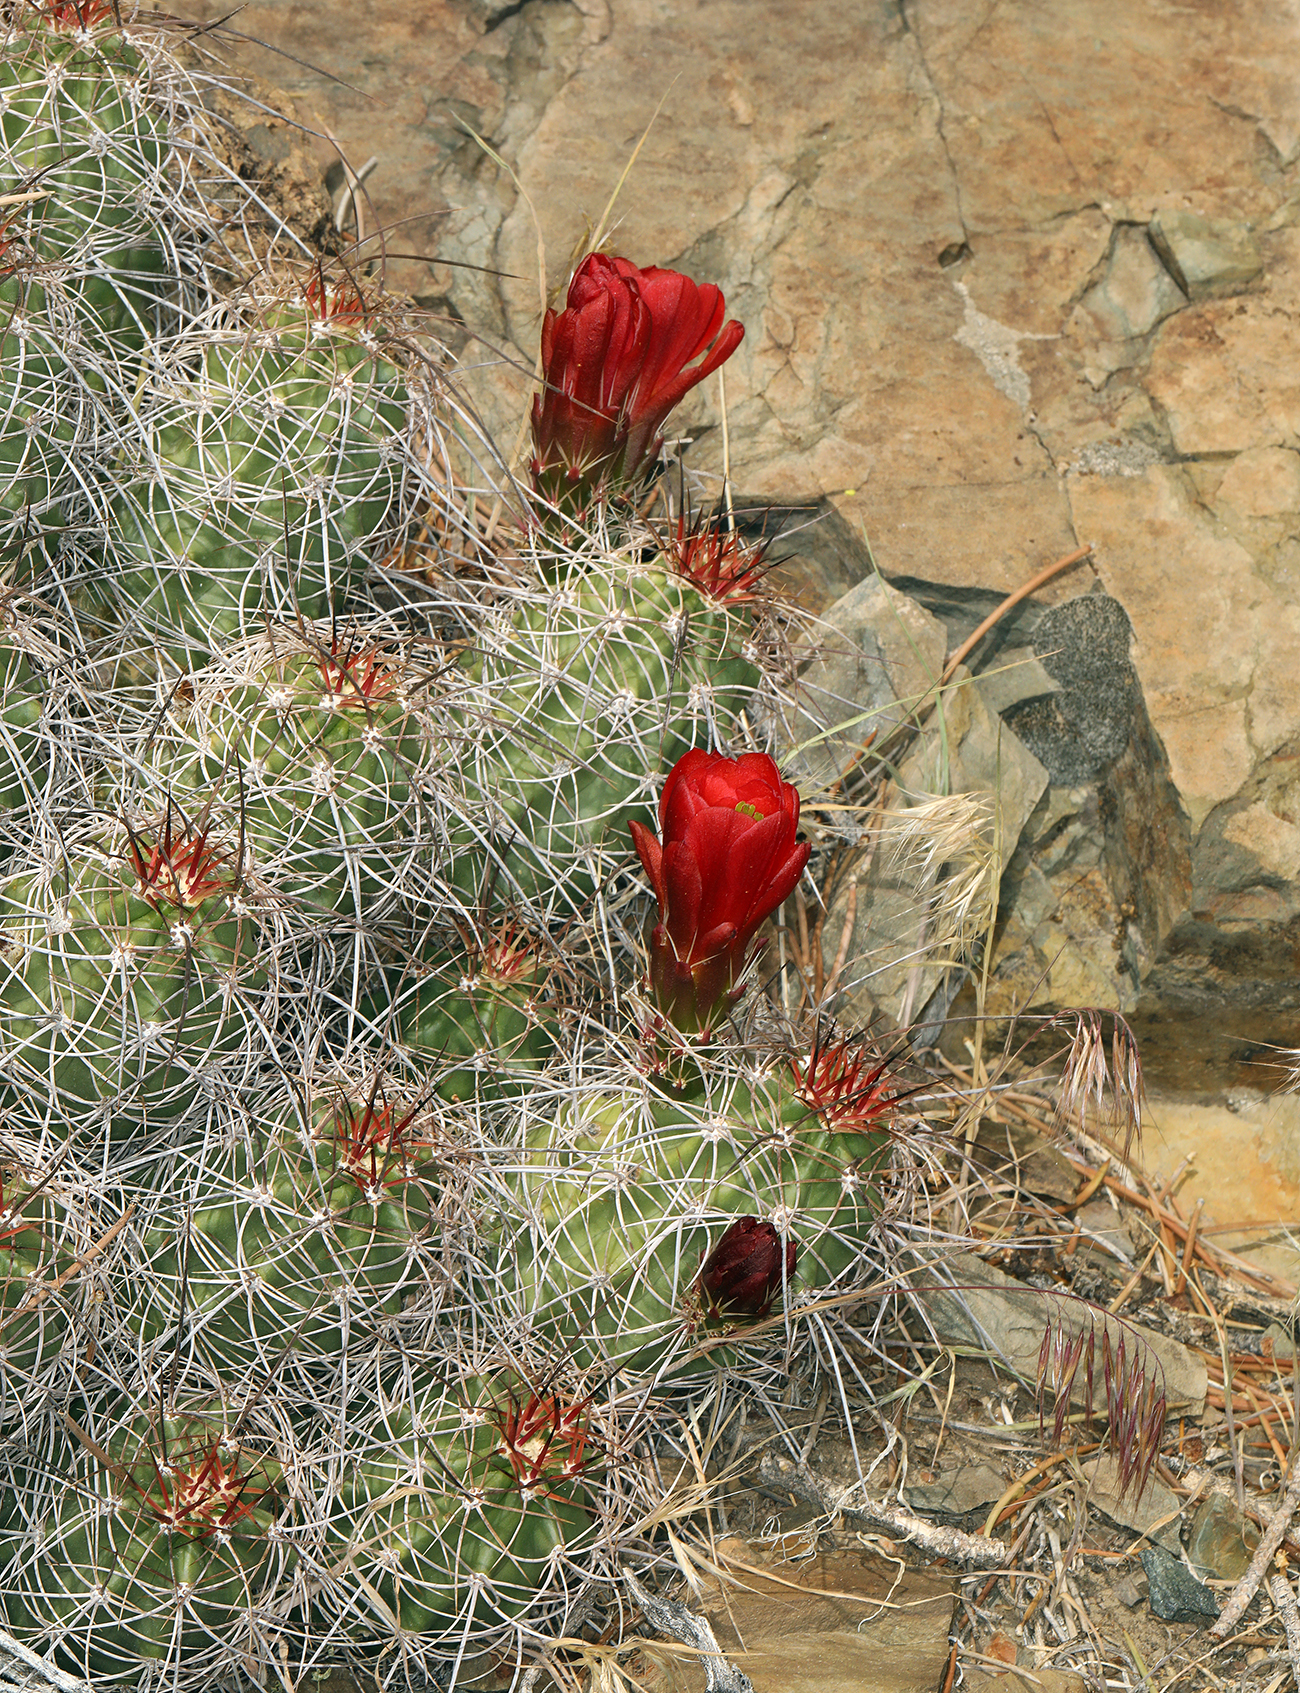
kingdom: Plantae
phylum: Tracheophyta
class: Magnoliopsida
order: Caryophyllales
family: Cactaceae
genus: Echinocereus
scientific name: Echinocereus triglochidiatus
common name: Claretcup hedgehog
